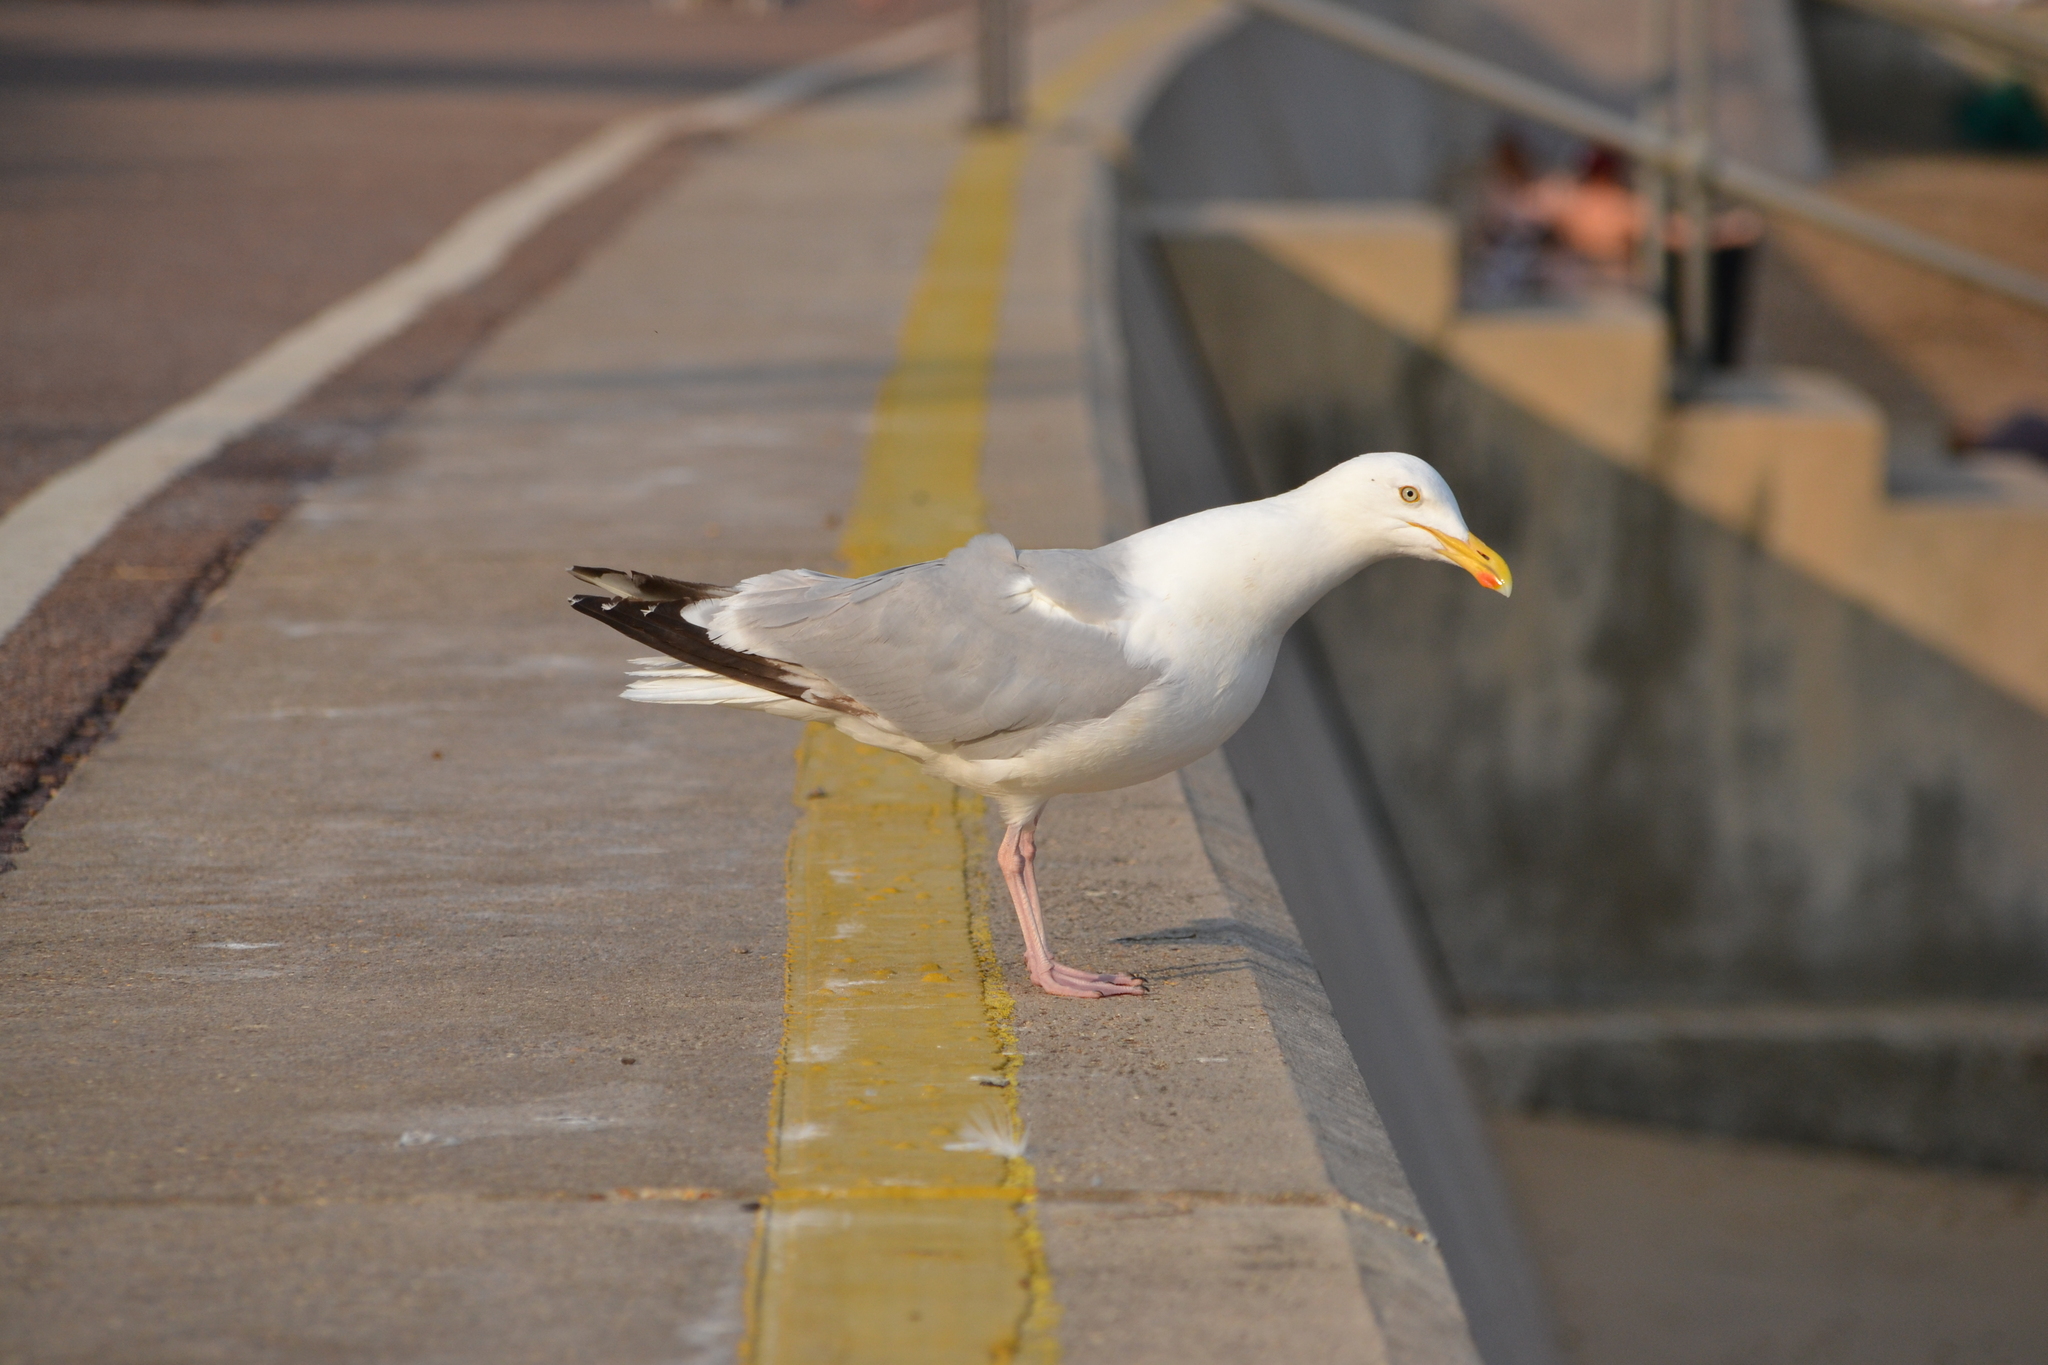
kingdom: Animalia
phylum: Chordata
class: Aves
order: Charadriiformes
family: Laridae
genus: Larus
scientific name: Larus argentatus
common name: Herring gull
